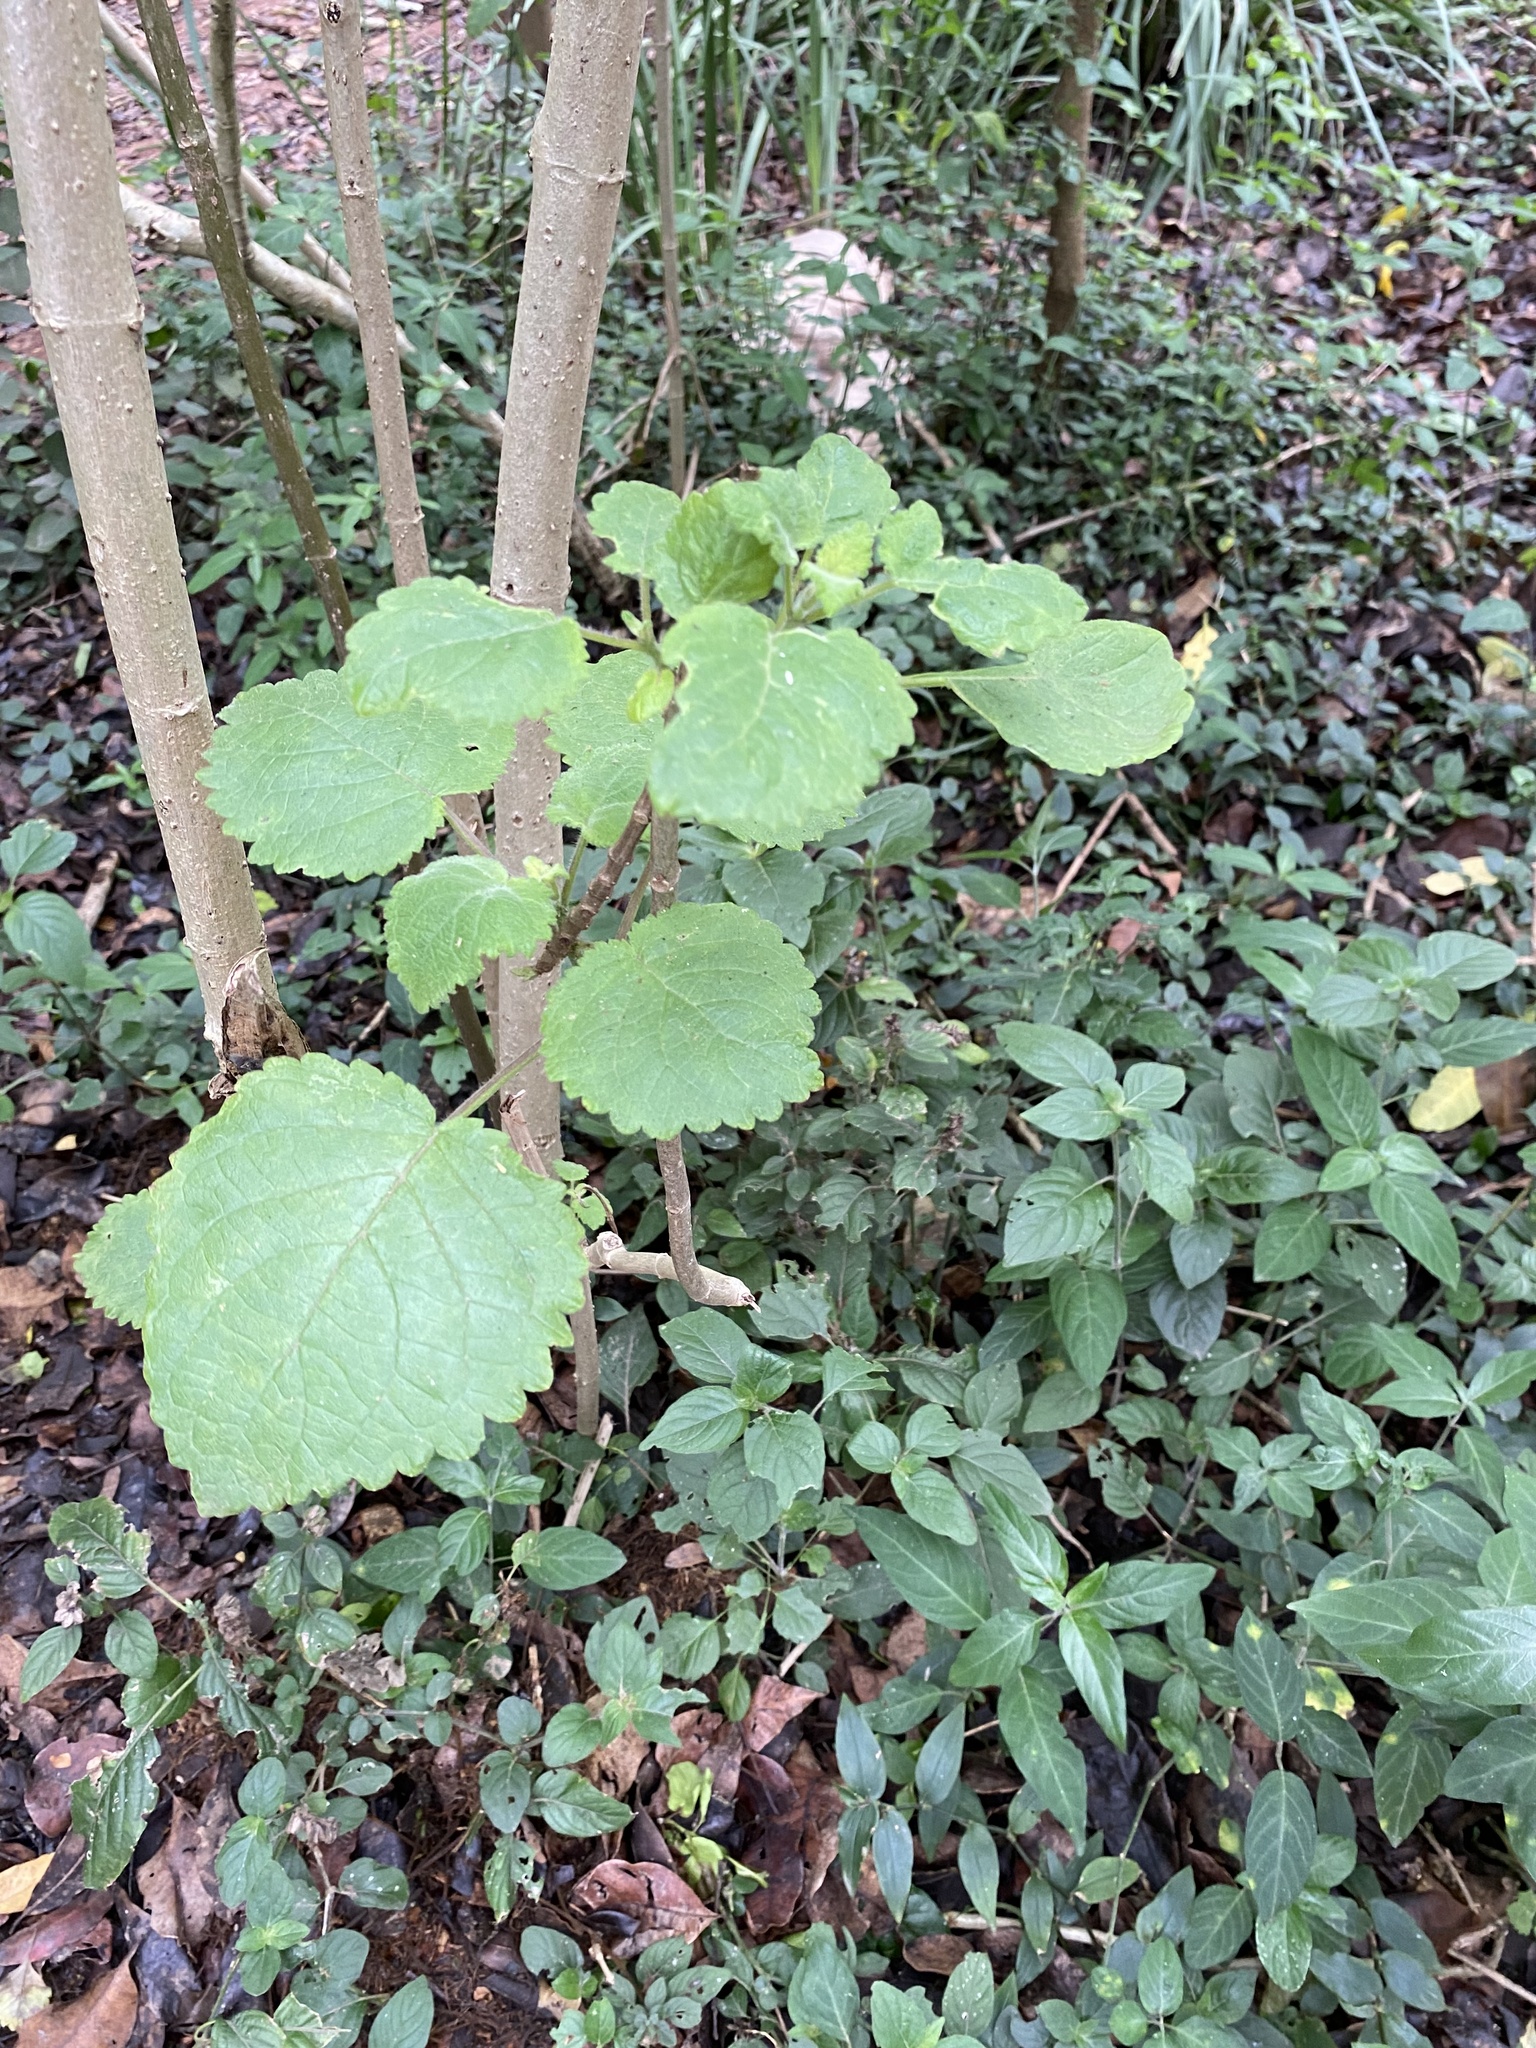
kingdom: Plantae
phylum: Tracheophyta
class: Magnoliopsida
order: Lamiales
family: Lamiaceae
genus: Tetradenia
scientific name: Tetradenia riparia
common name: Gingerbush
